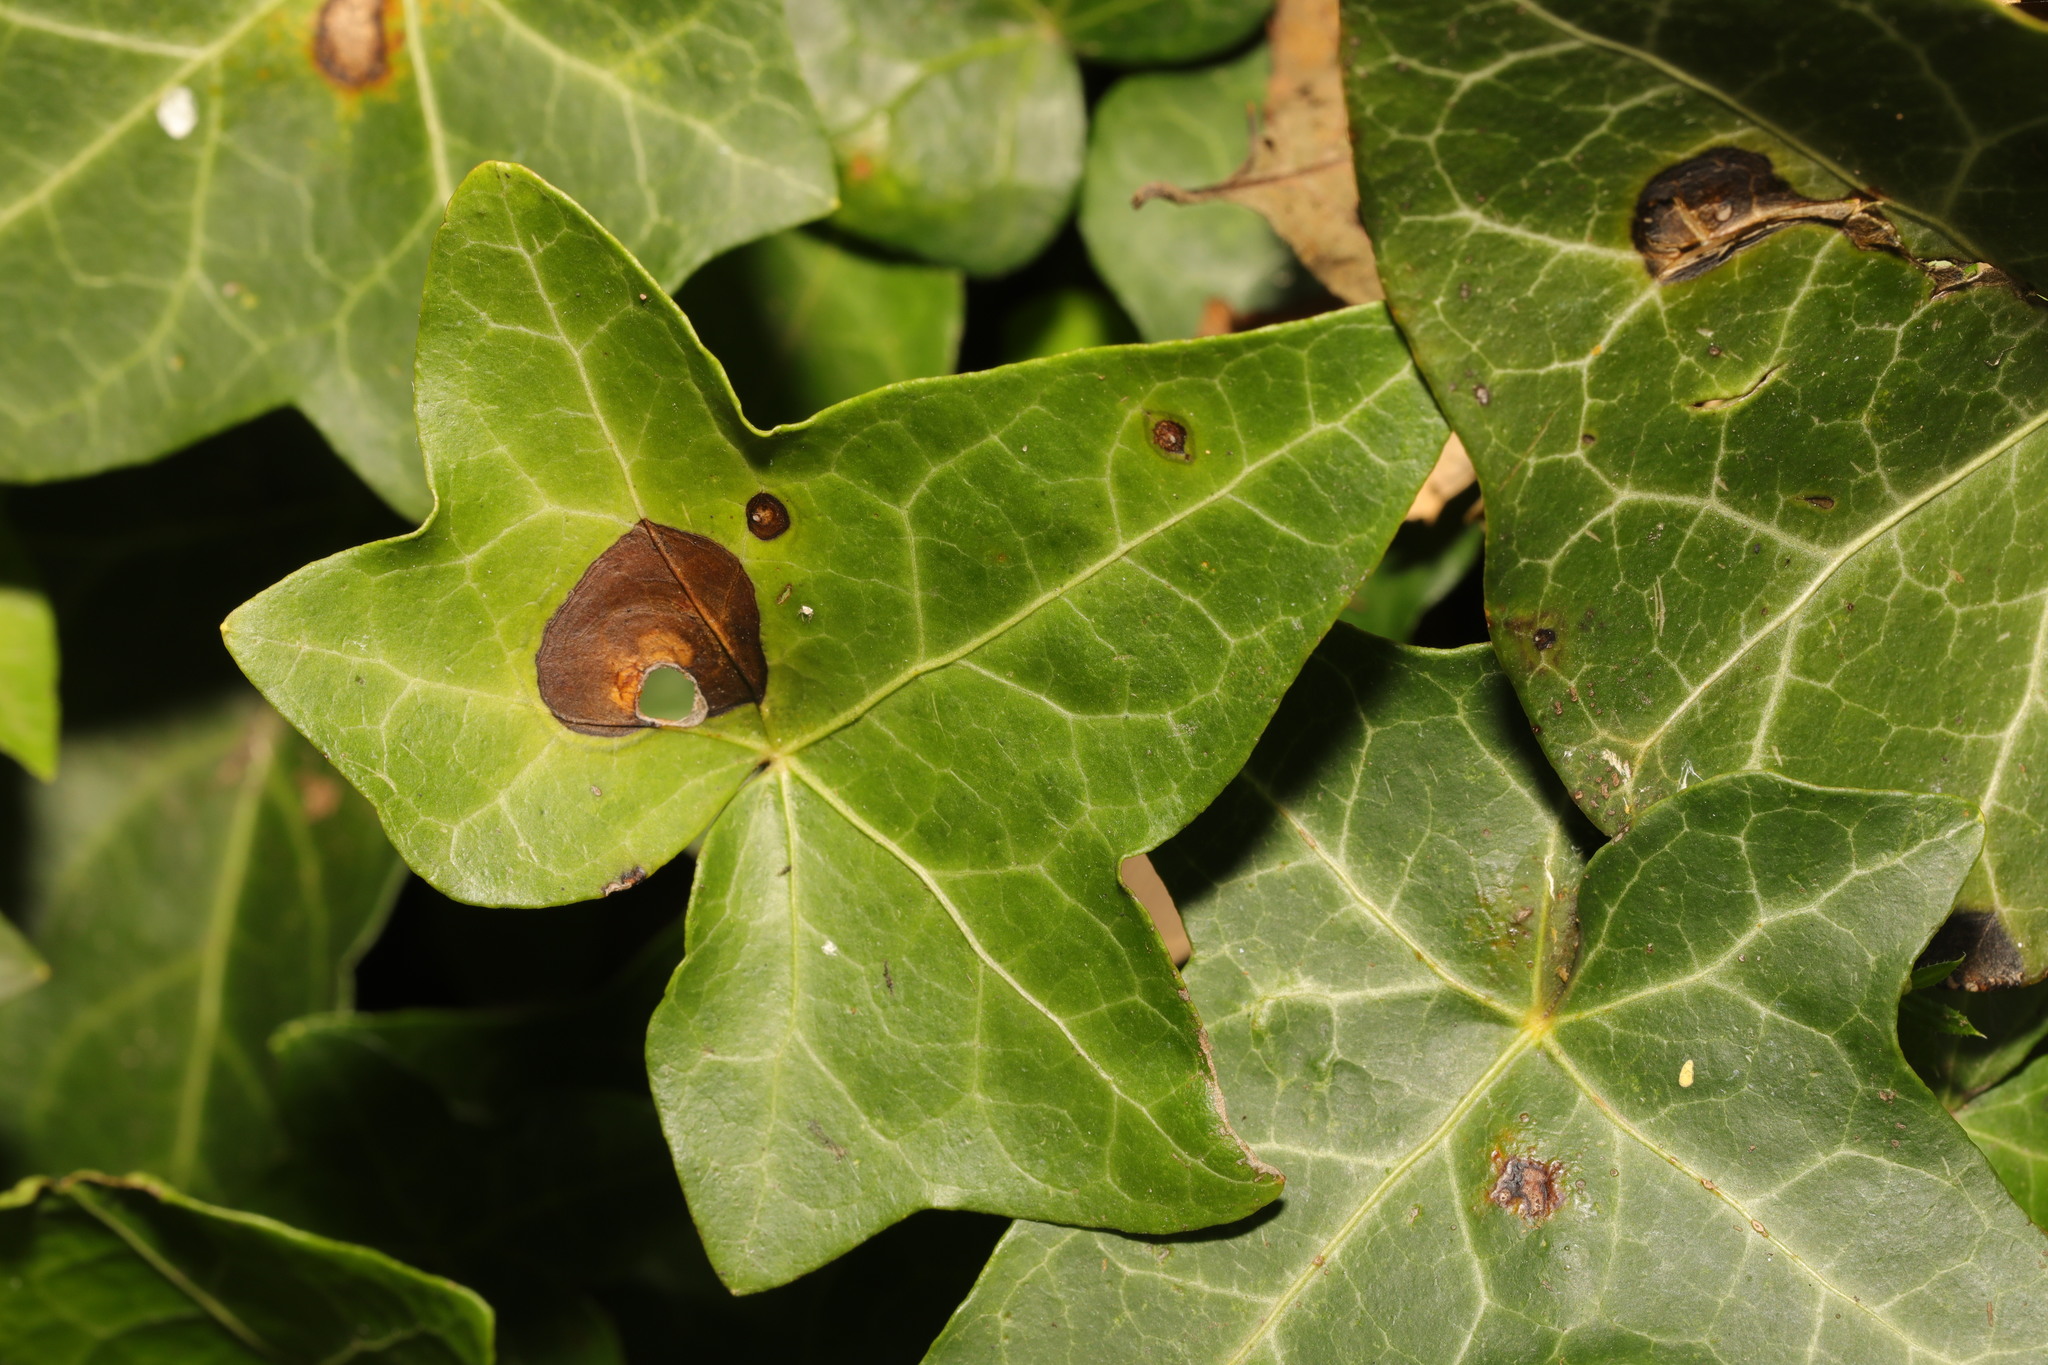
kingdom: Fungi
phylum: Ascomycota
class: Dothideomycetes
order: Pleosporales
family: Didymellaceae
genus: Boeremia
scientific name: Boeremia hedericola
